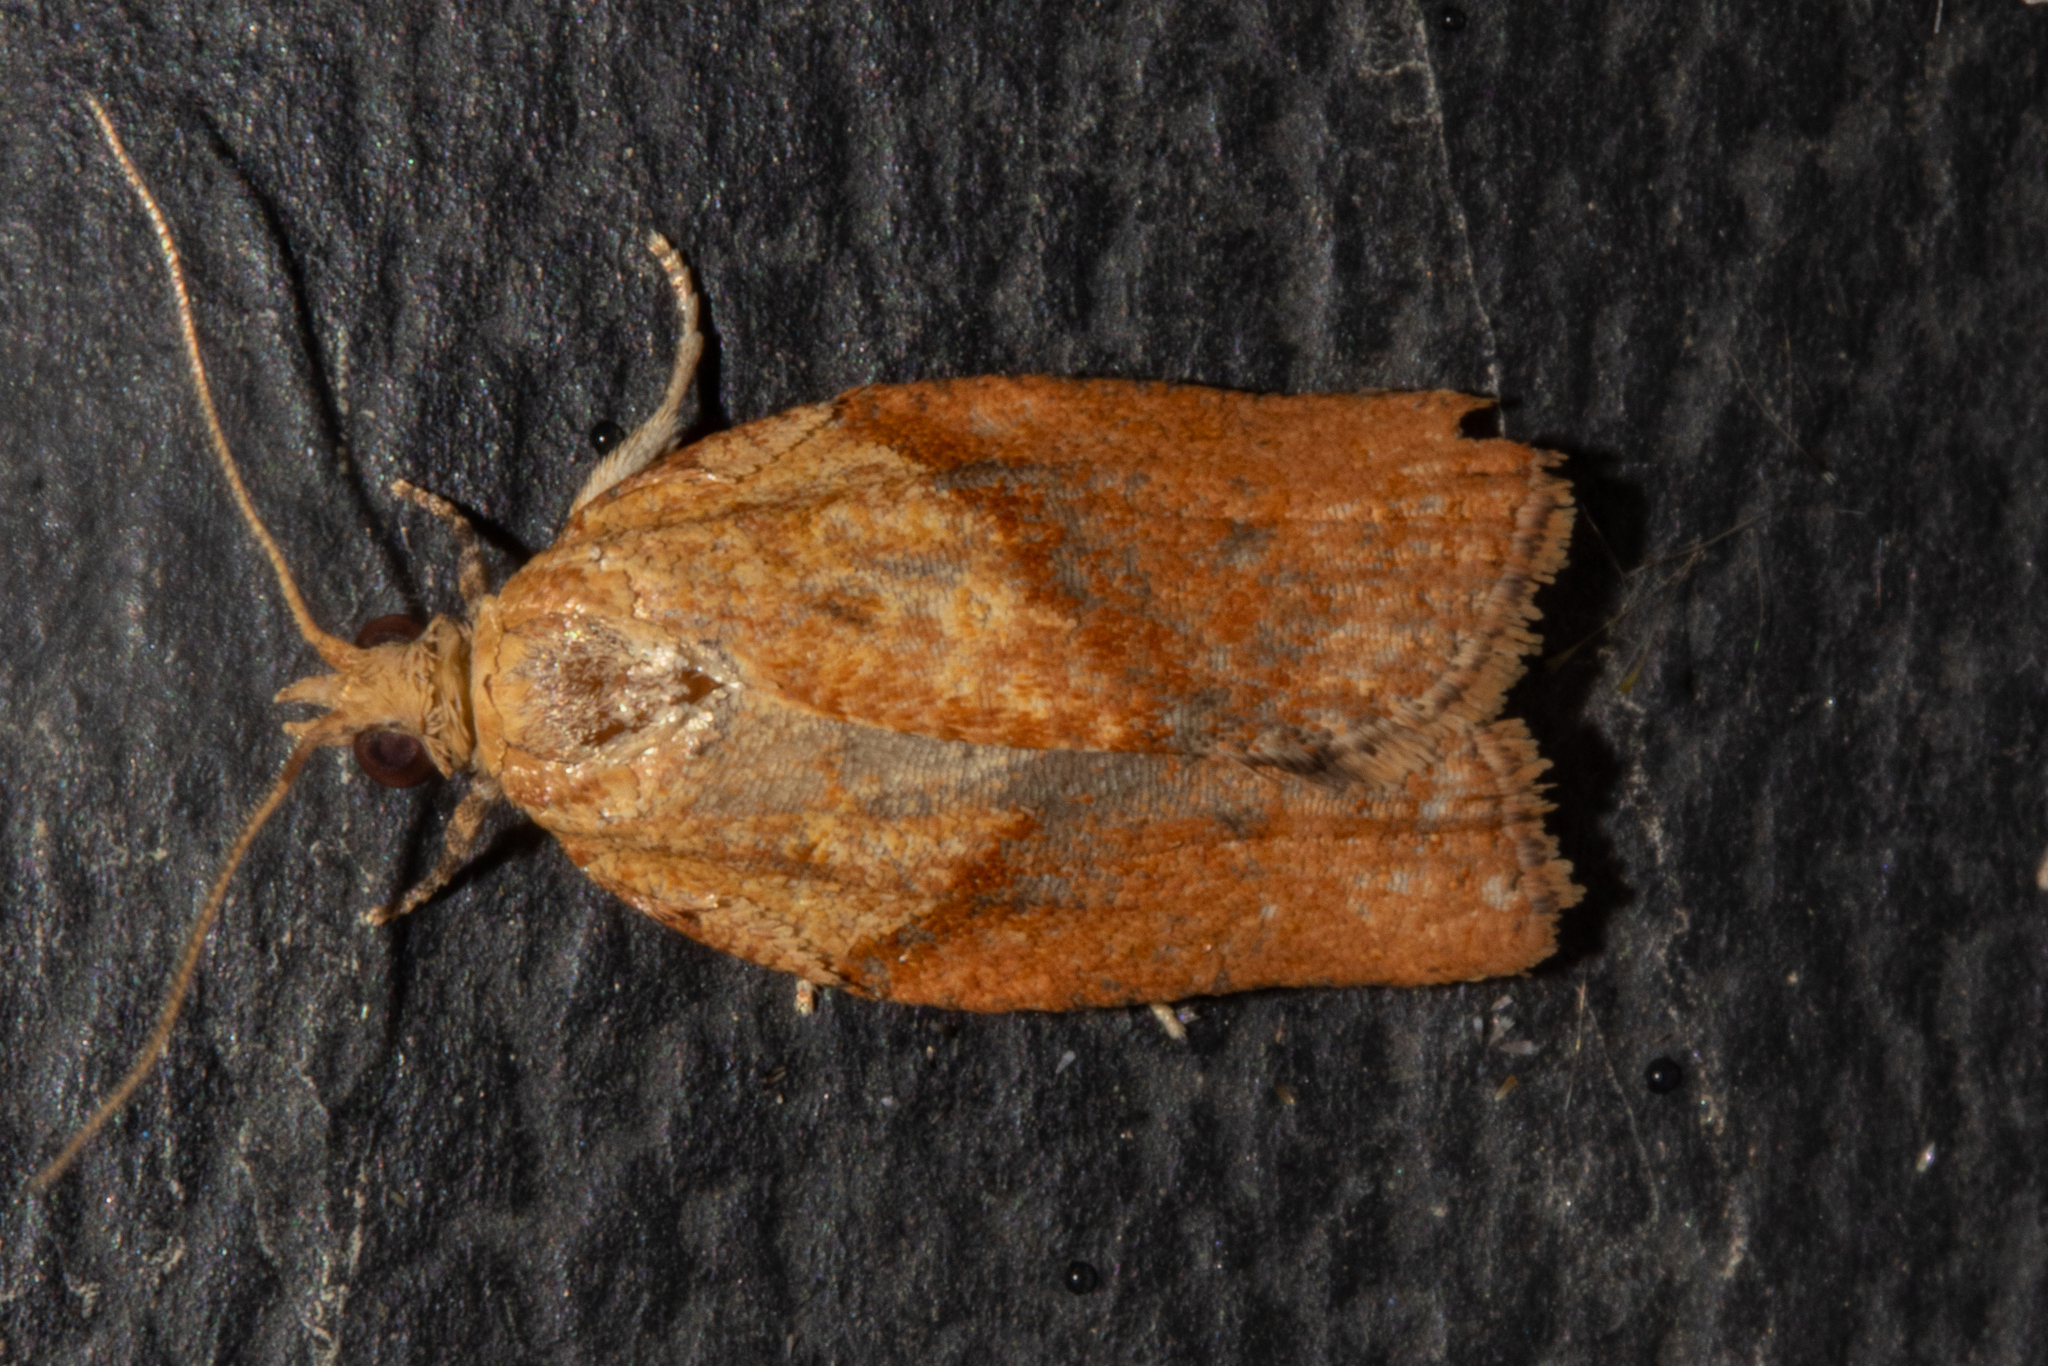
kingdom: Animalia
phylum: Arthropoda
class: Insecta
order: Lepidoptera
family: Tortricidae
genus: Epiphyas
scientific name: Epiphyas postvittana
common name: Light brown apple moth
